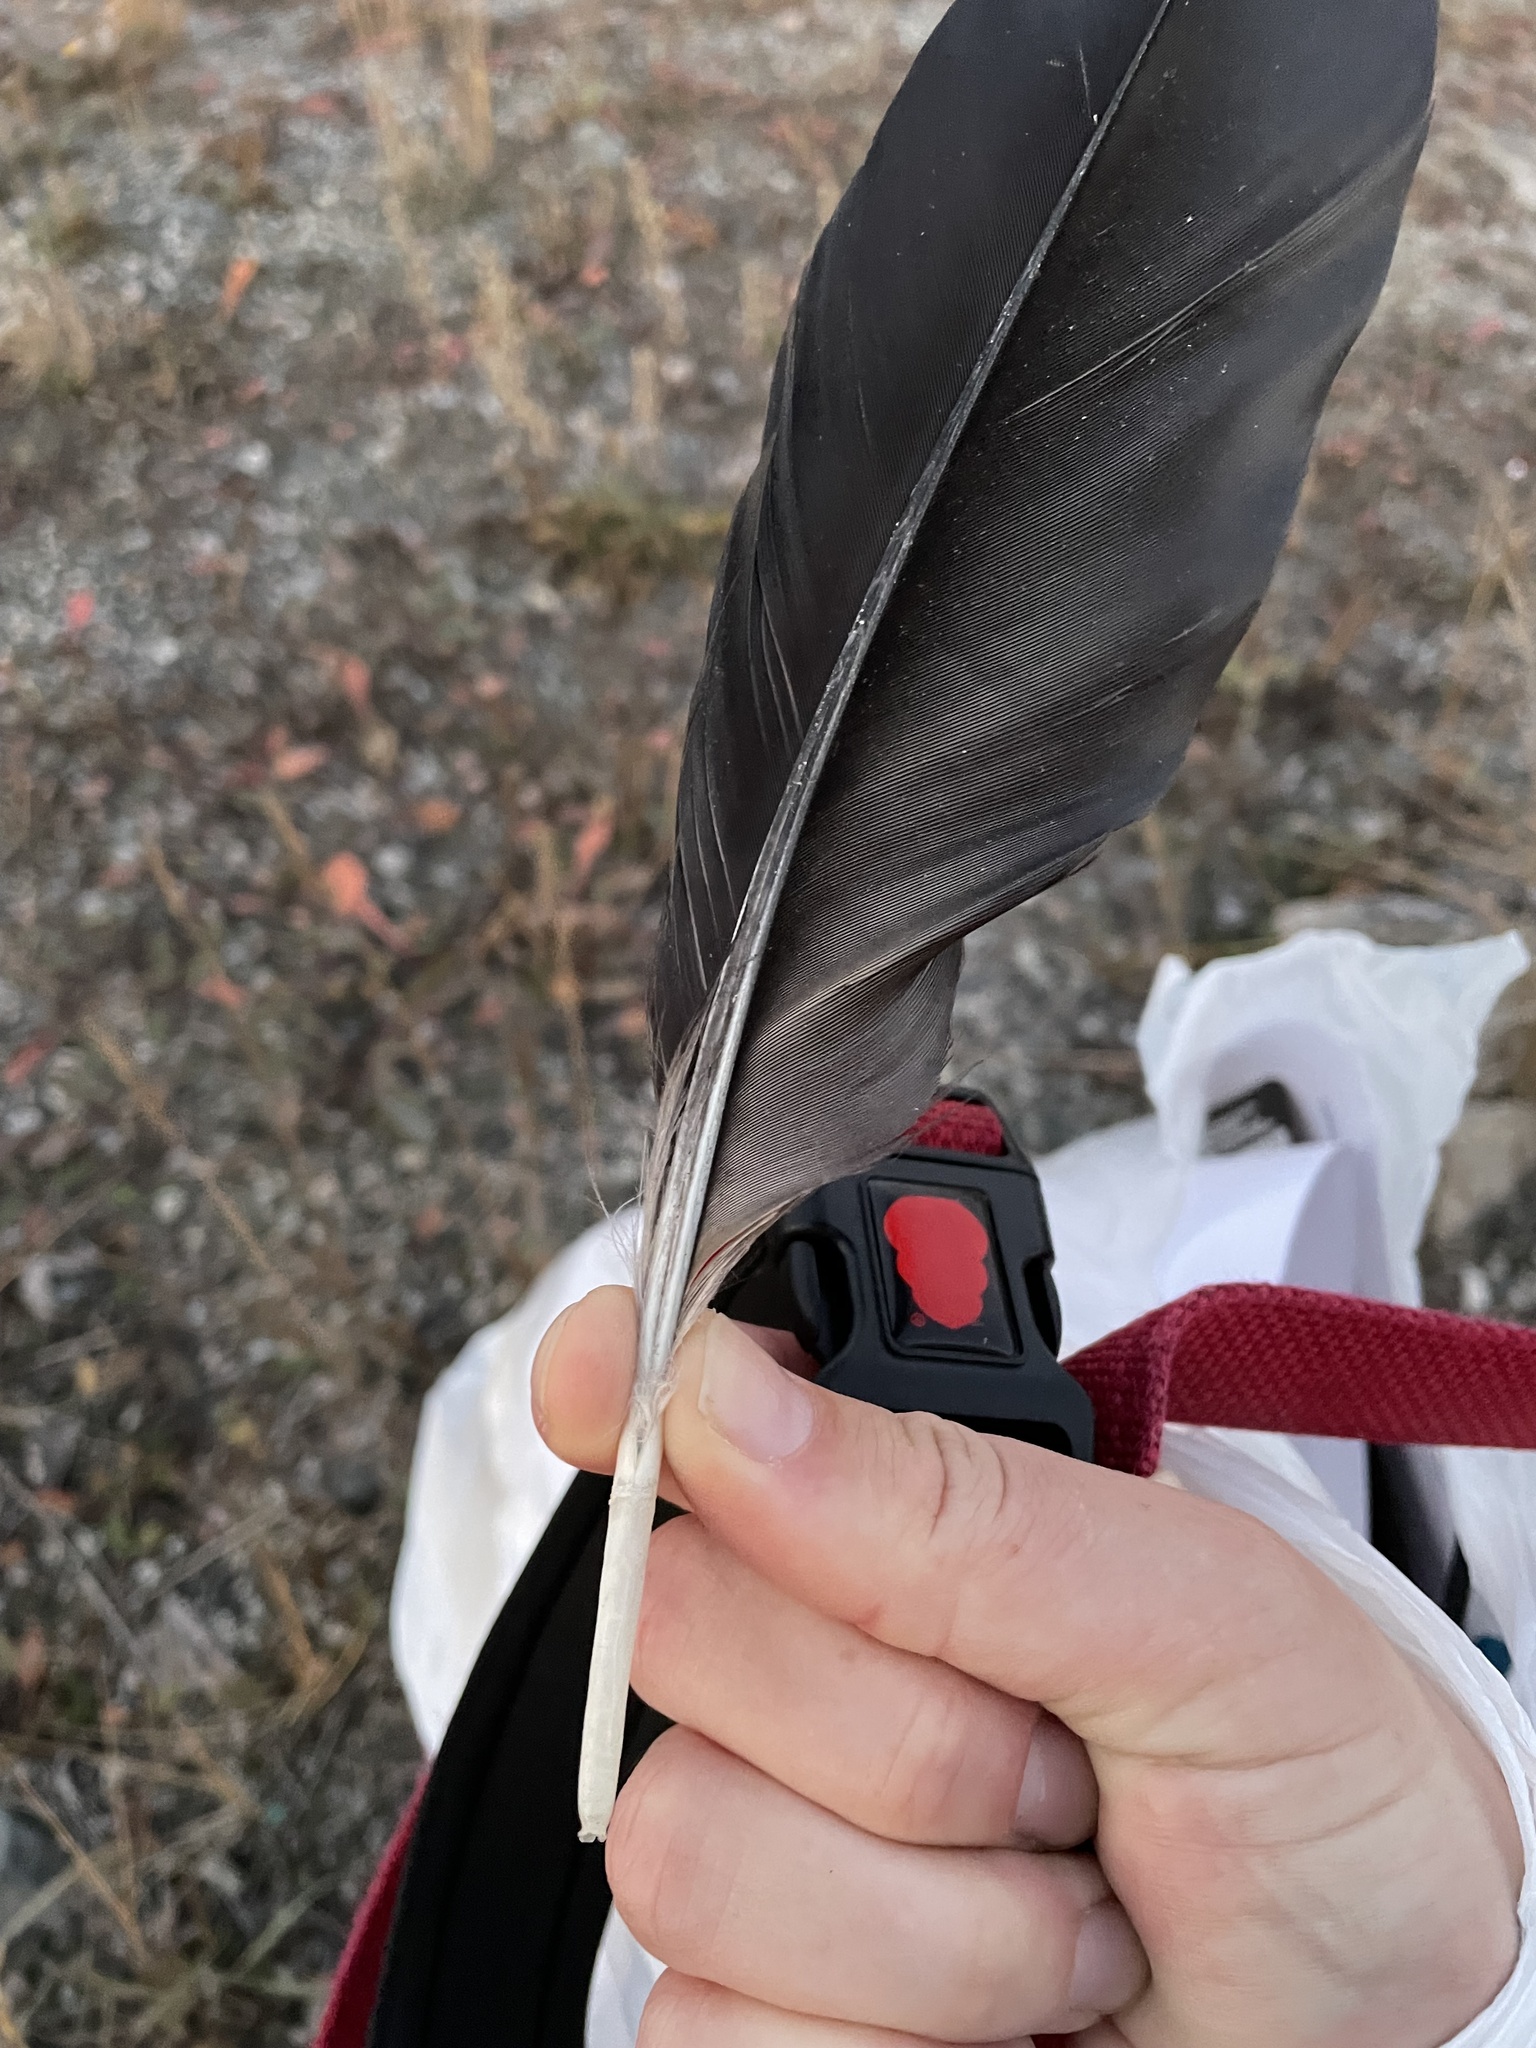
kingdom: Animalia
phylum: Chordata
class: Aves
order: Passeriformes
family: Corvidae
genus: Corvus
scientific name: Corvus corax
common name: Common raven
